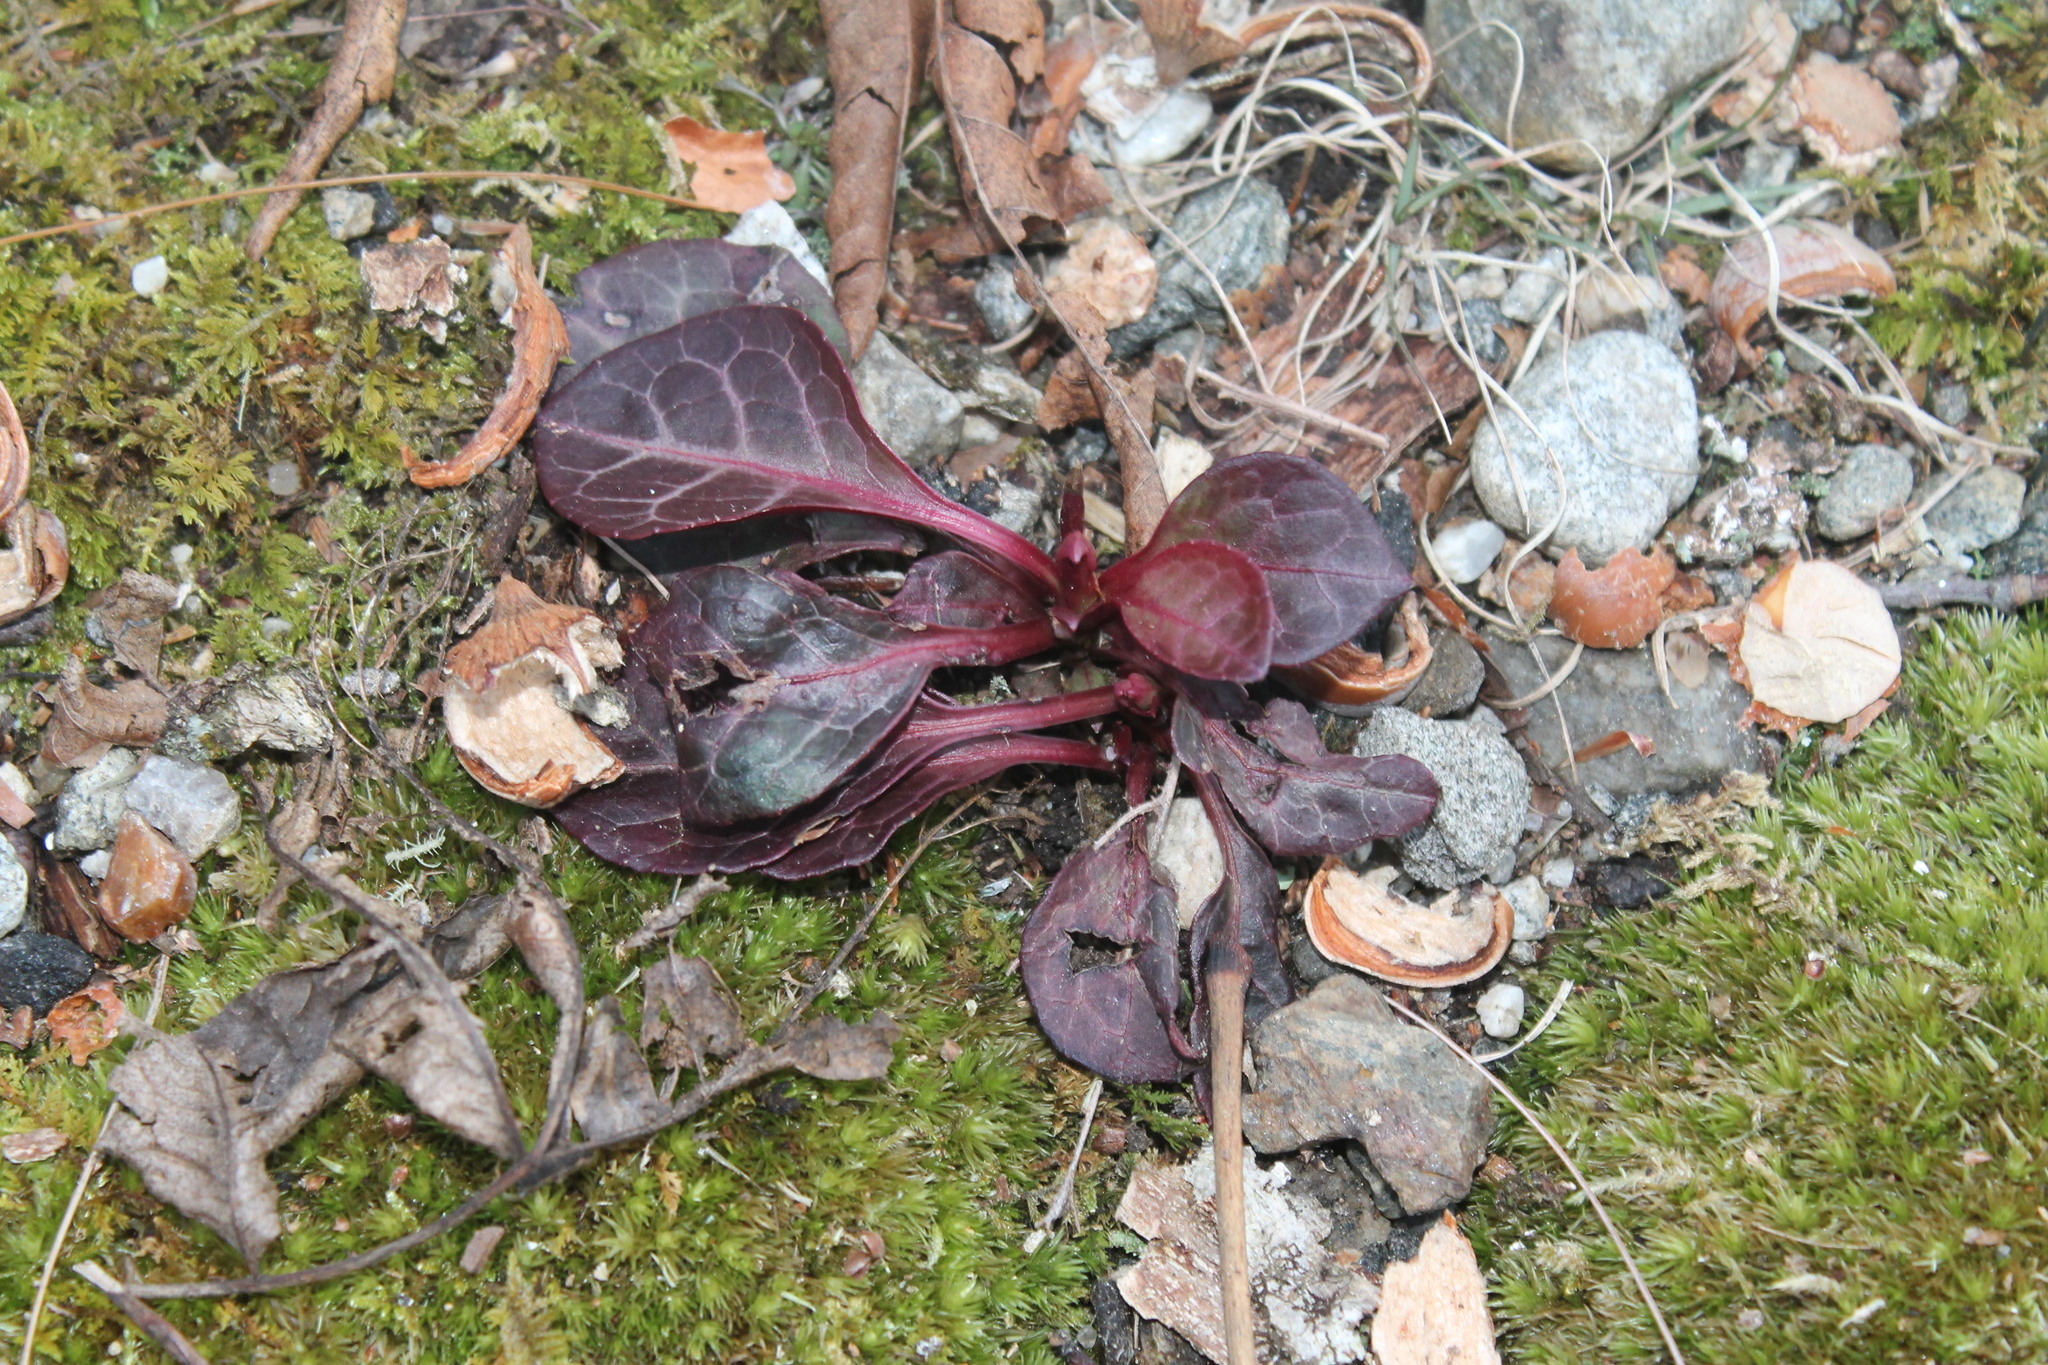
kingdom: Plantae
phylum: Tracheophyta
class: Magnoliopsida
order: Ericales
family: Ericaceae
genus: Pyrola
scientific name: Pyrola americana
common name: American wintergreen
